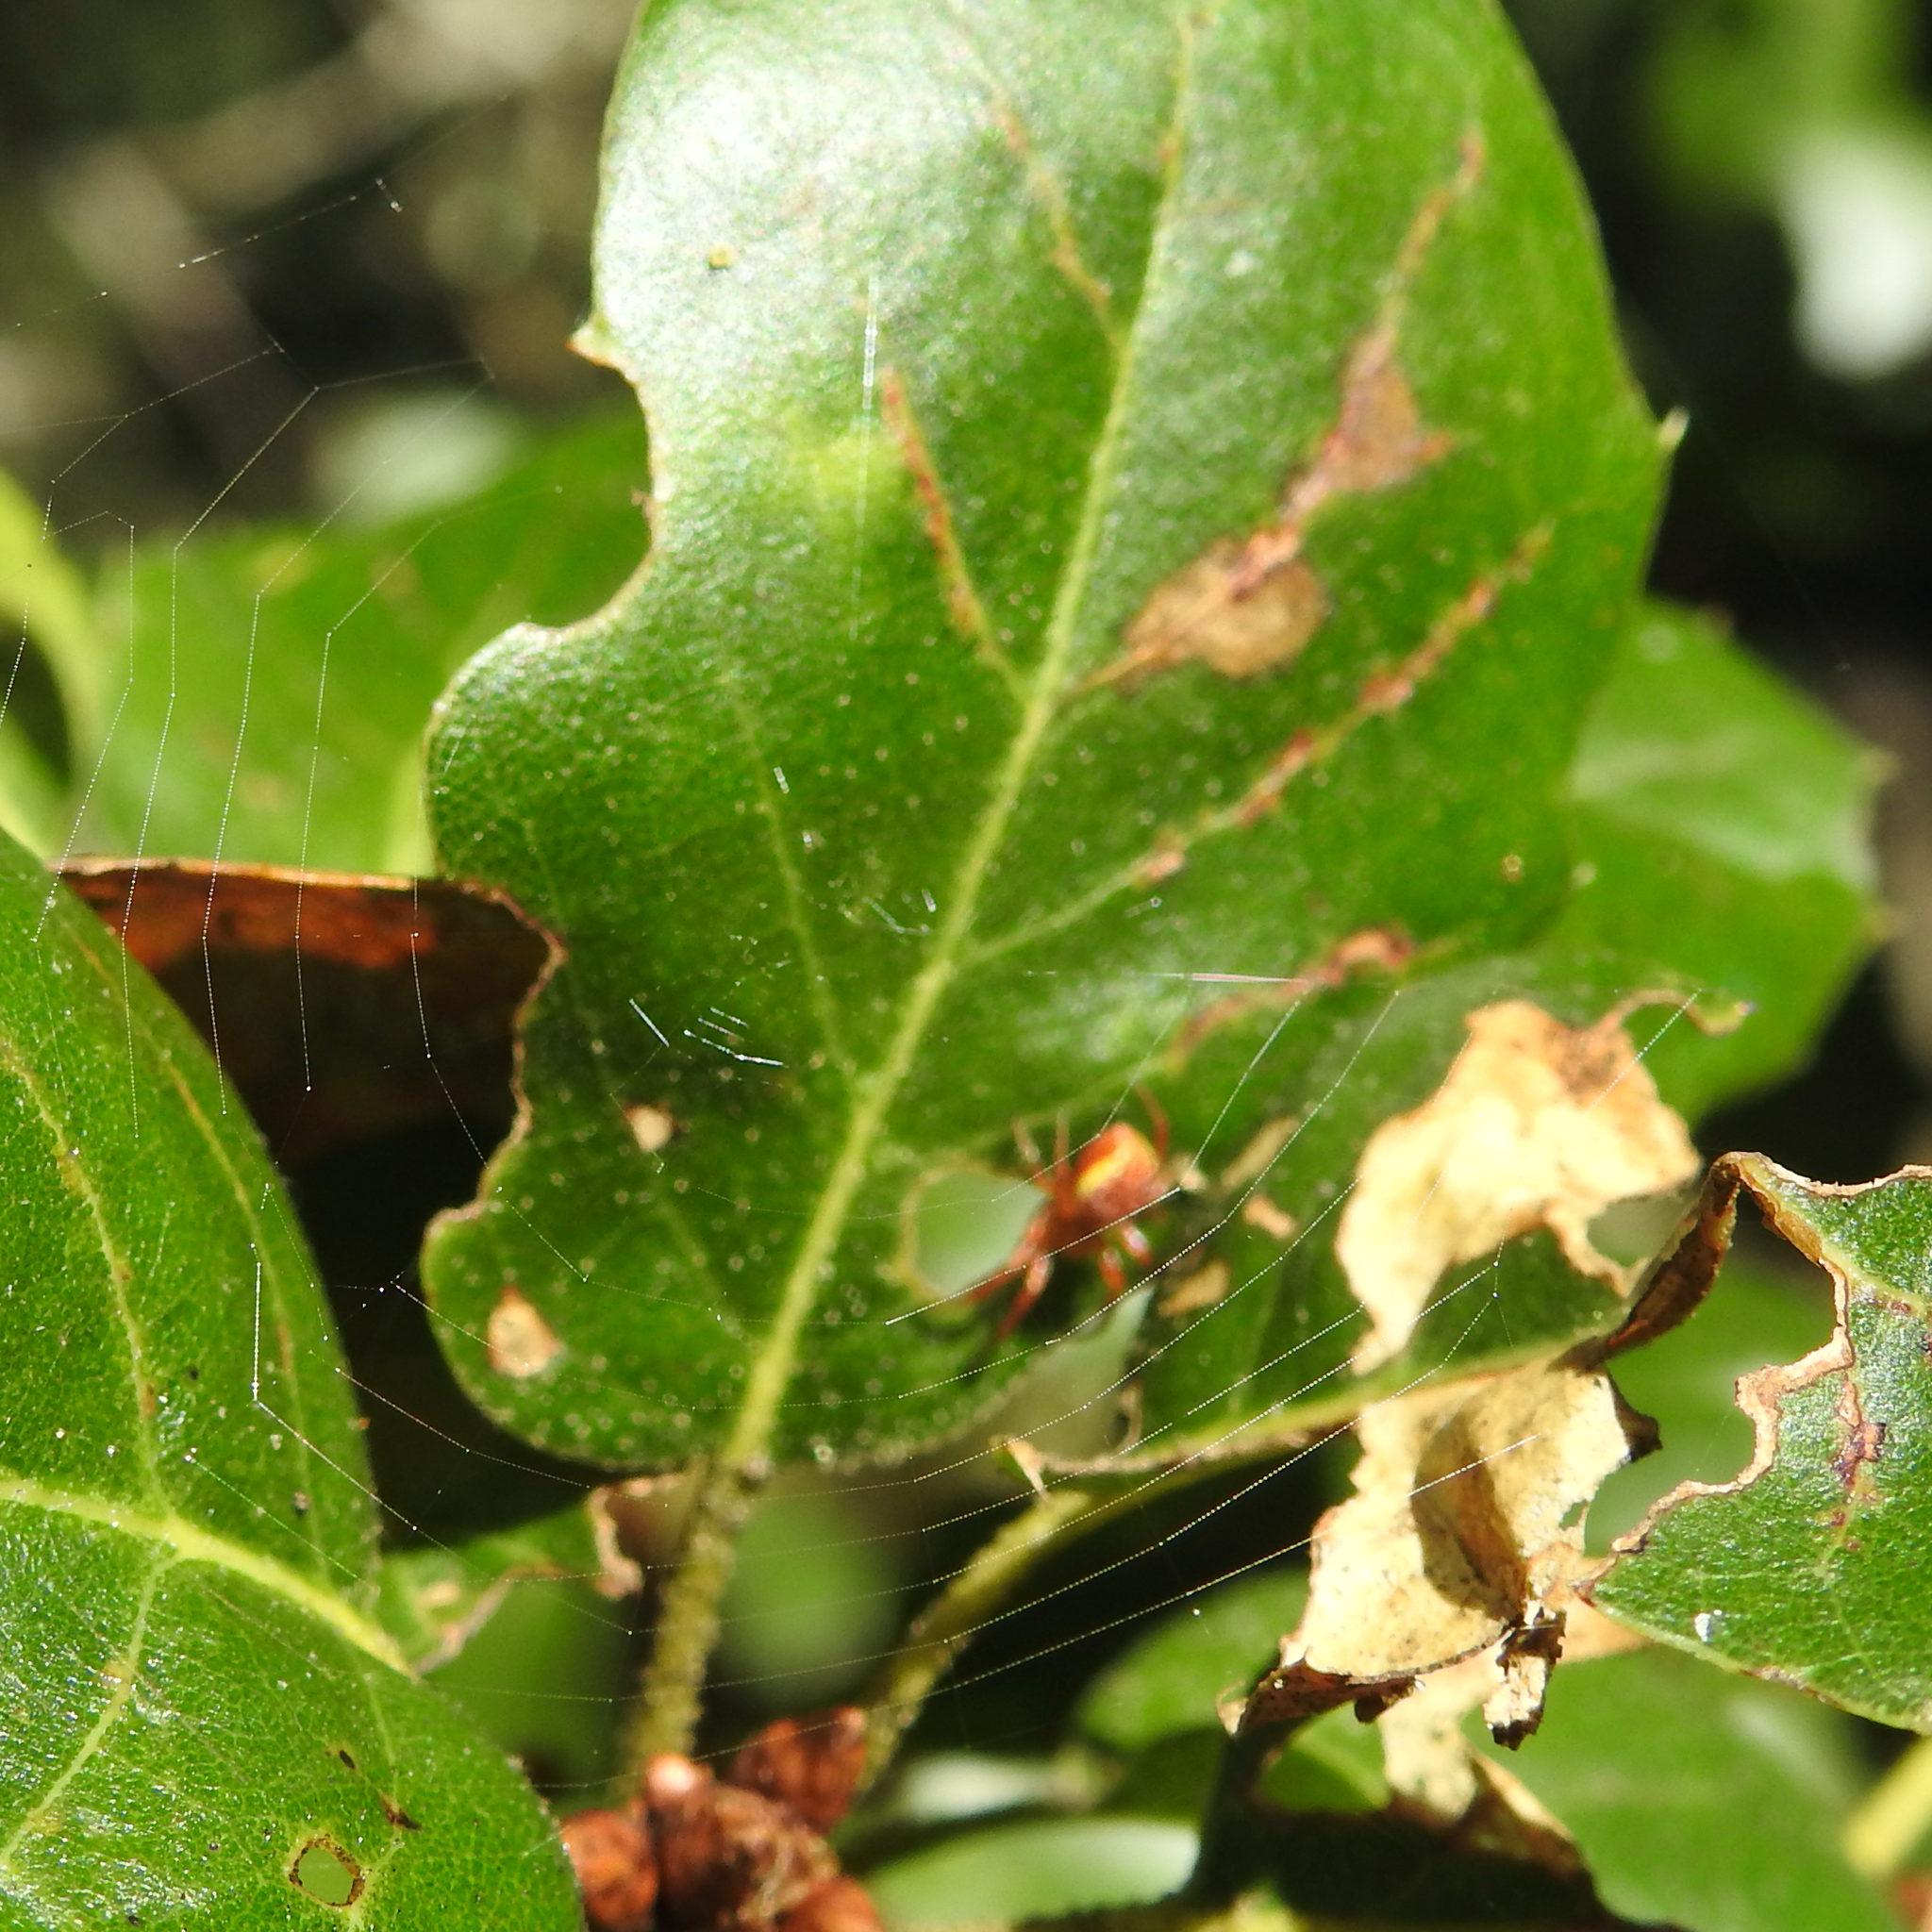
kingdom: Plantae
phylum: Tracheophyta
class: Magnoliopsida
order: Fagales
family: Fagaceae
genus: Quercus
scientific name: Quercus agrifolia
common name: California live oak
